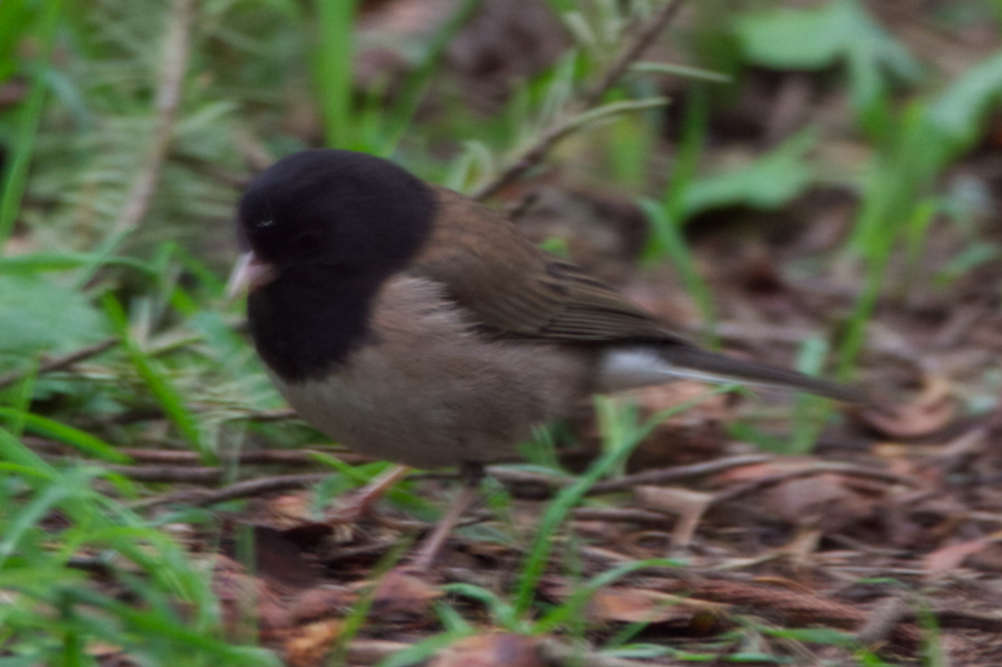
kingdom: Animalia
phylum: Chordata
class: Aves
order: Passeriformes
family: Passerellidae
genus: Junco
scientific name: Junco hyemalis
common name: Dark-eyed junco
